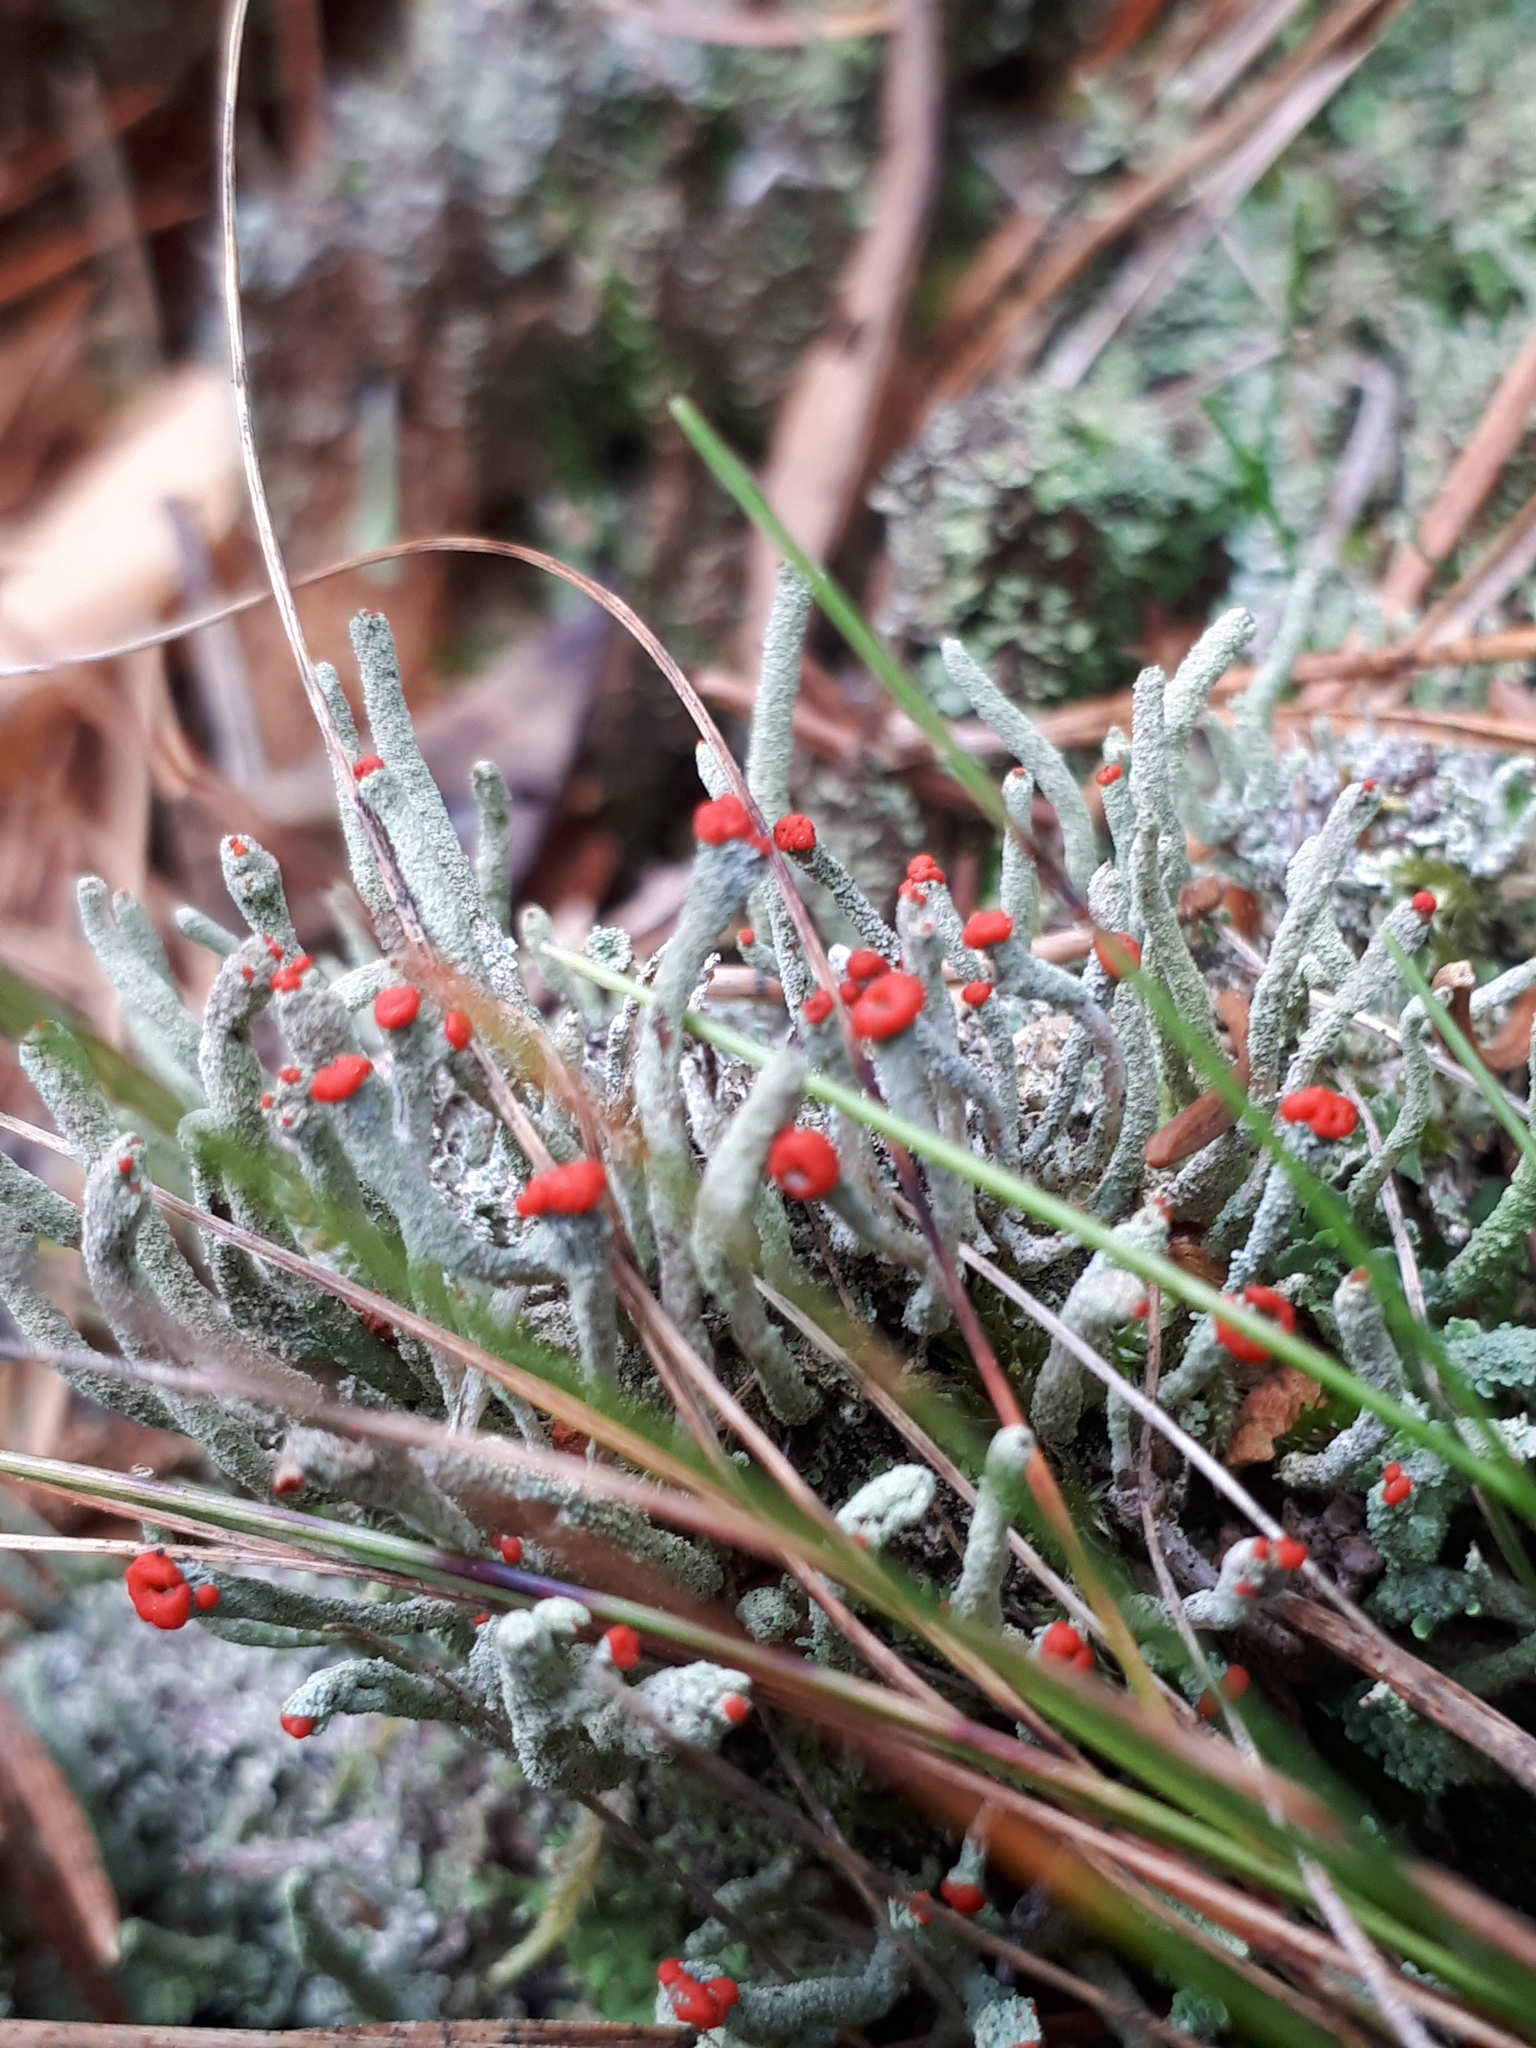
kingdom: Fungi
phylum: Ascomycota
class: Lecanoromycetes
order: Lecanorales
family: Cladoniaceae
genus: Cladonia
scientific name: Cladonia floerkeana
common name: Gritty british soldiers lichen
